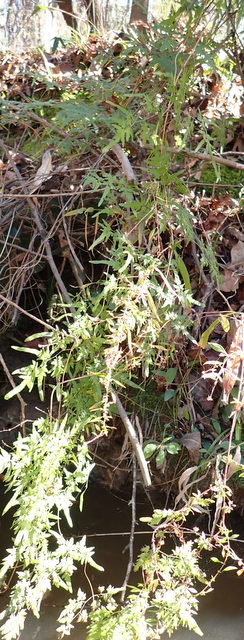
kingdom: Plantae
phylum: Tracheophyta
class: Polypodiopsida
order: Schizaeales
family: Lygodiaceae
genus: Lygodium
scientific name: Lygodium japonicum
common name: Japanese climbing fern
